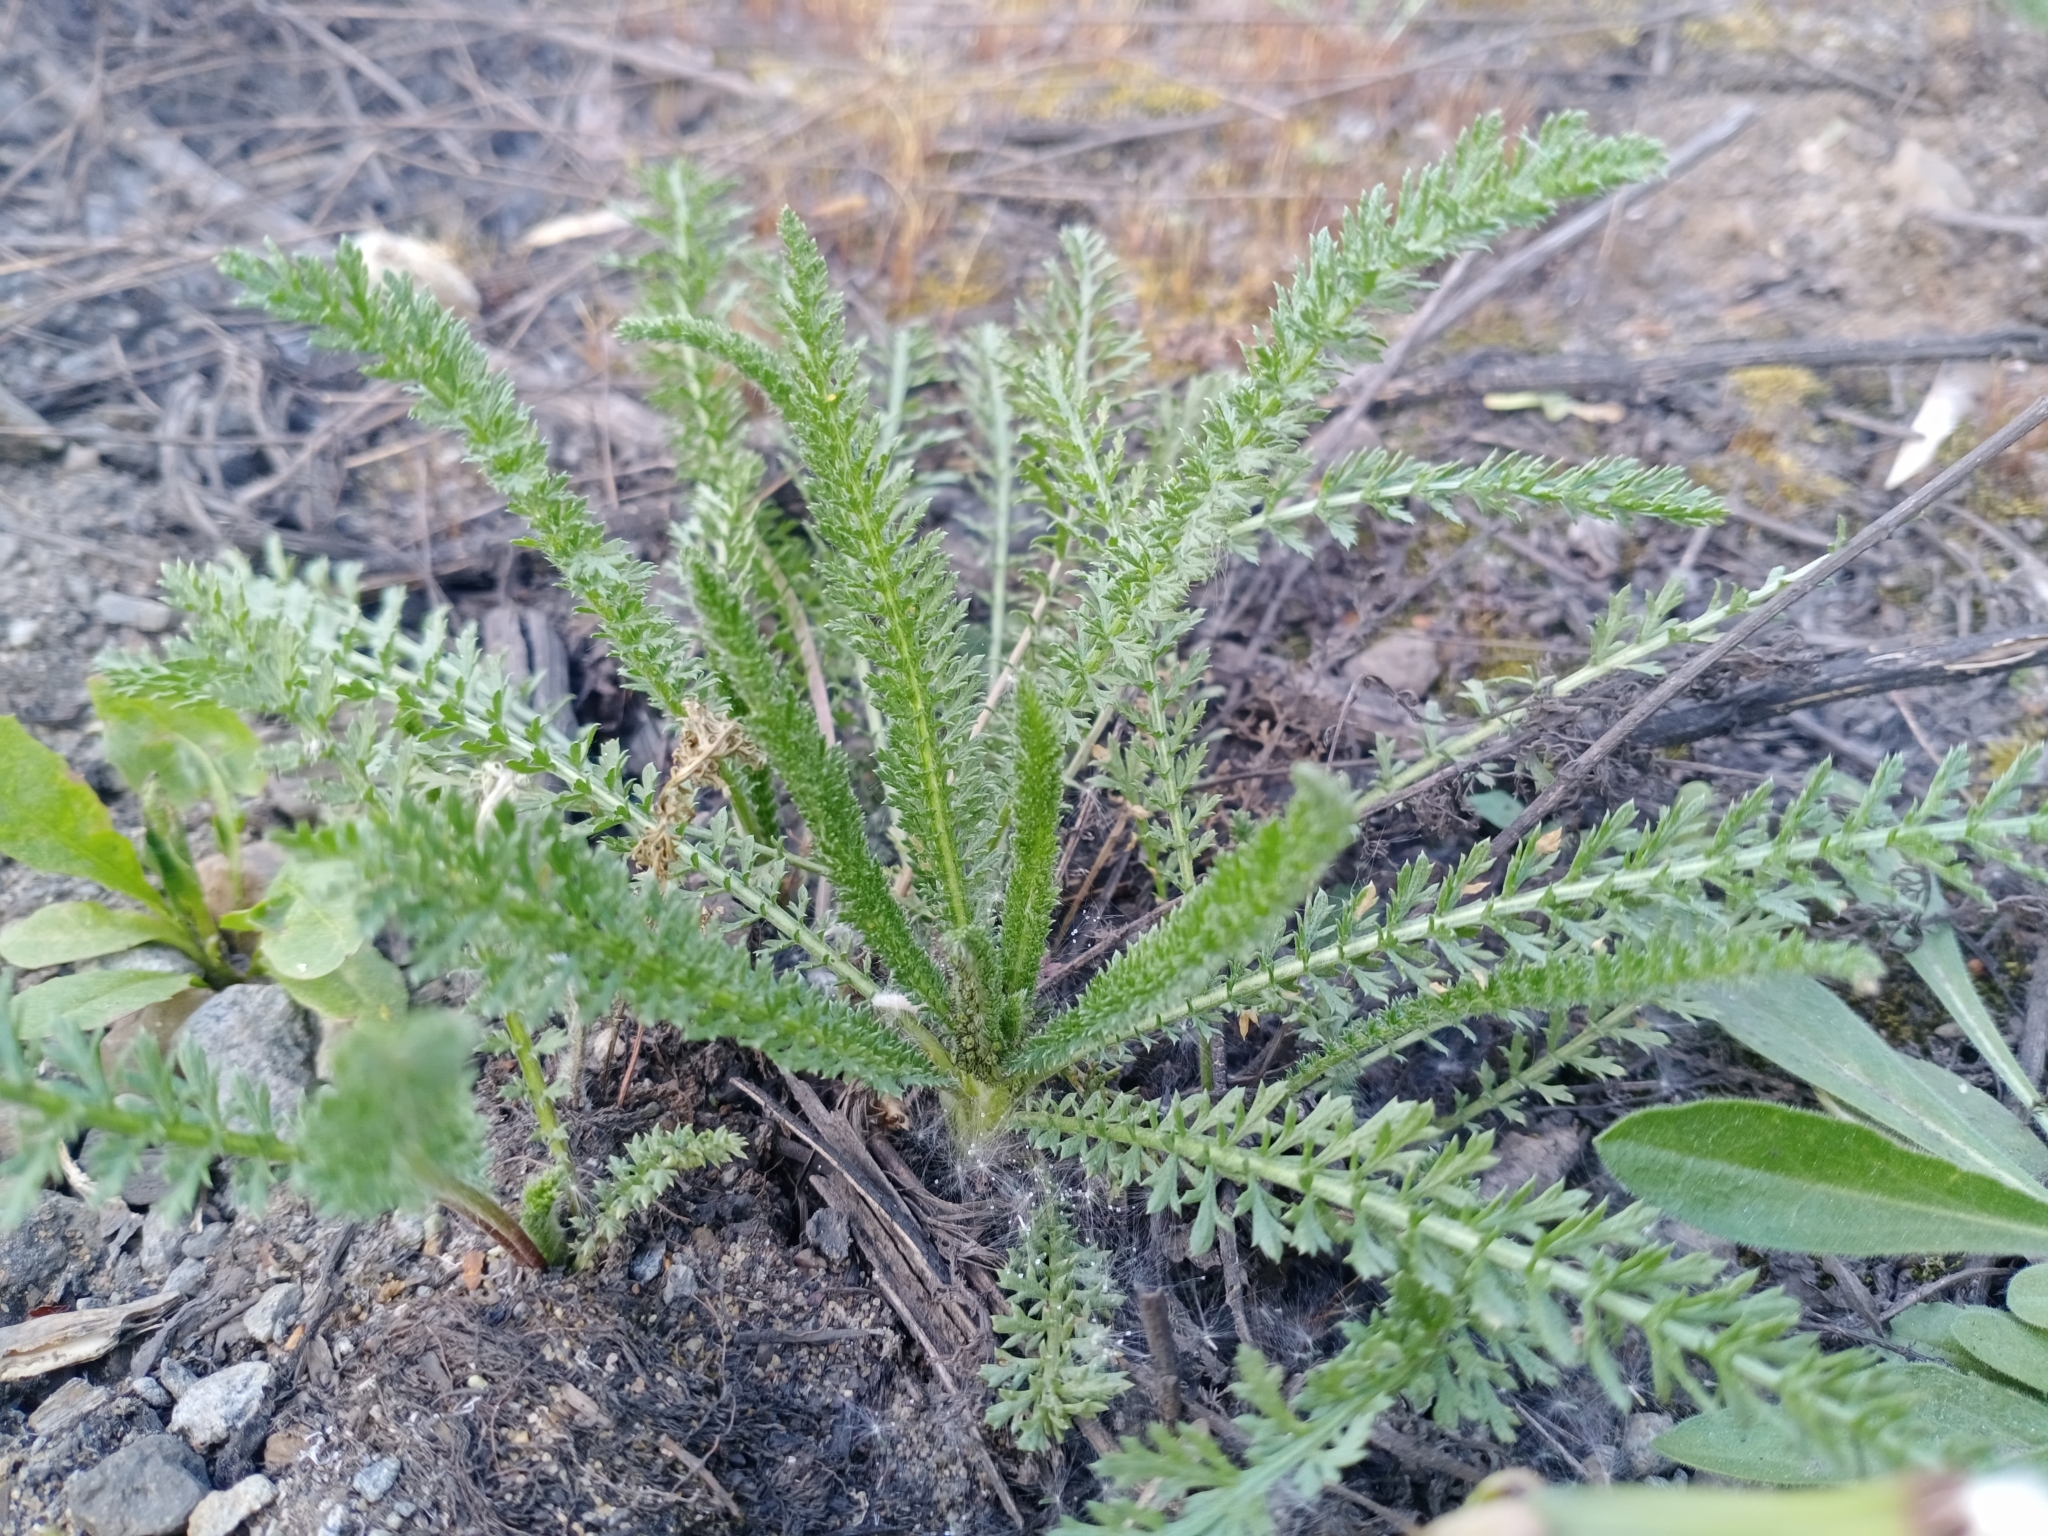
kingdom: Plantae
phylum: Tracheophyta
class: Magnoliopsida
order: Asterales
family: Asteraceae
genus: Achillea
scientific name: Achillea millefolium
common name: Yarrow
